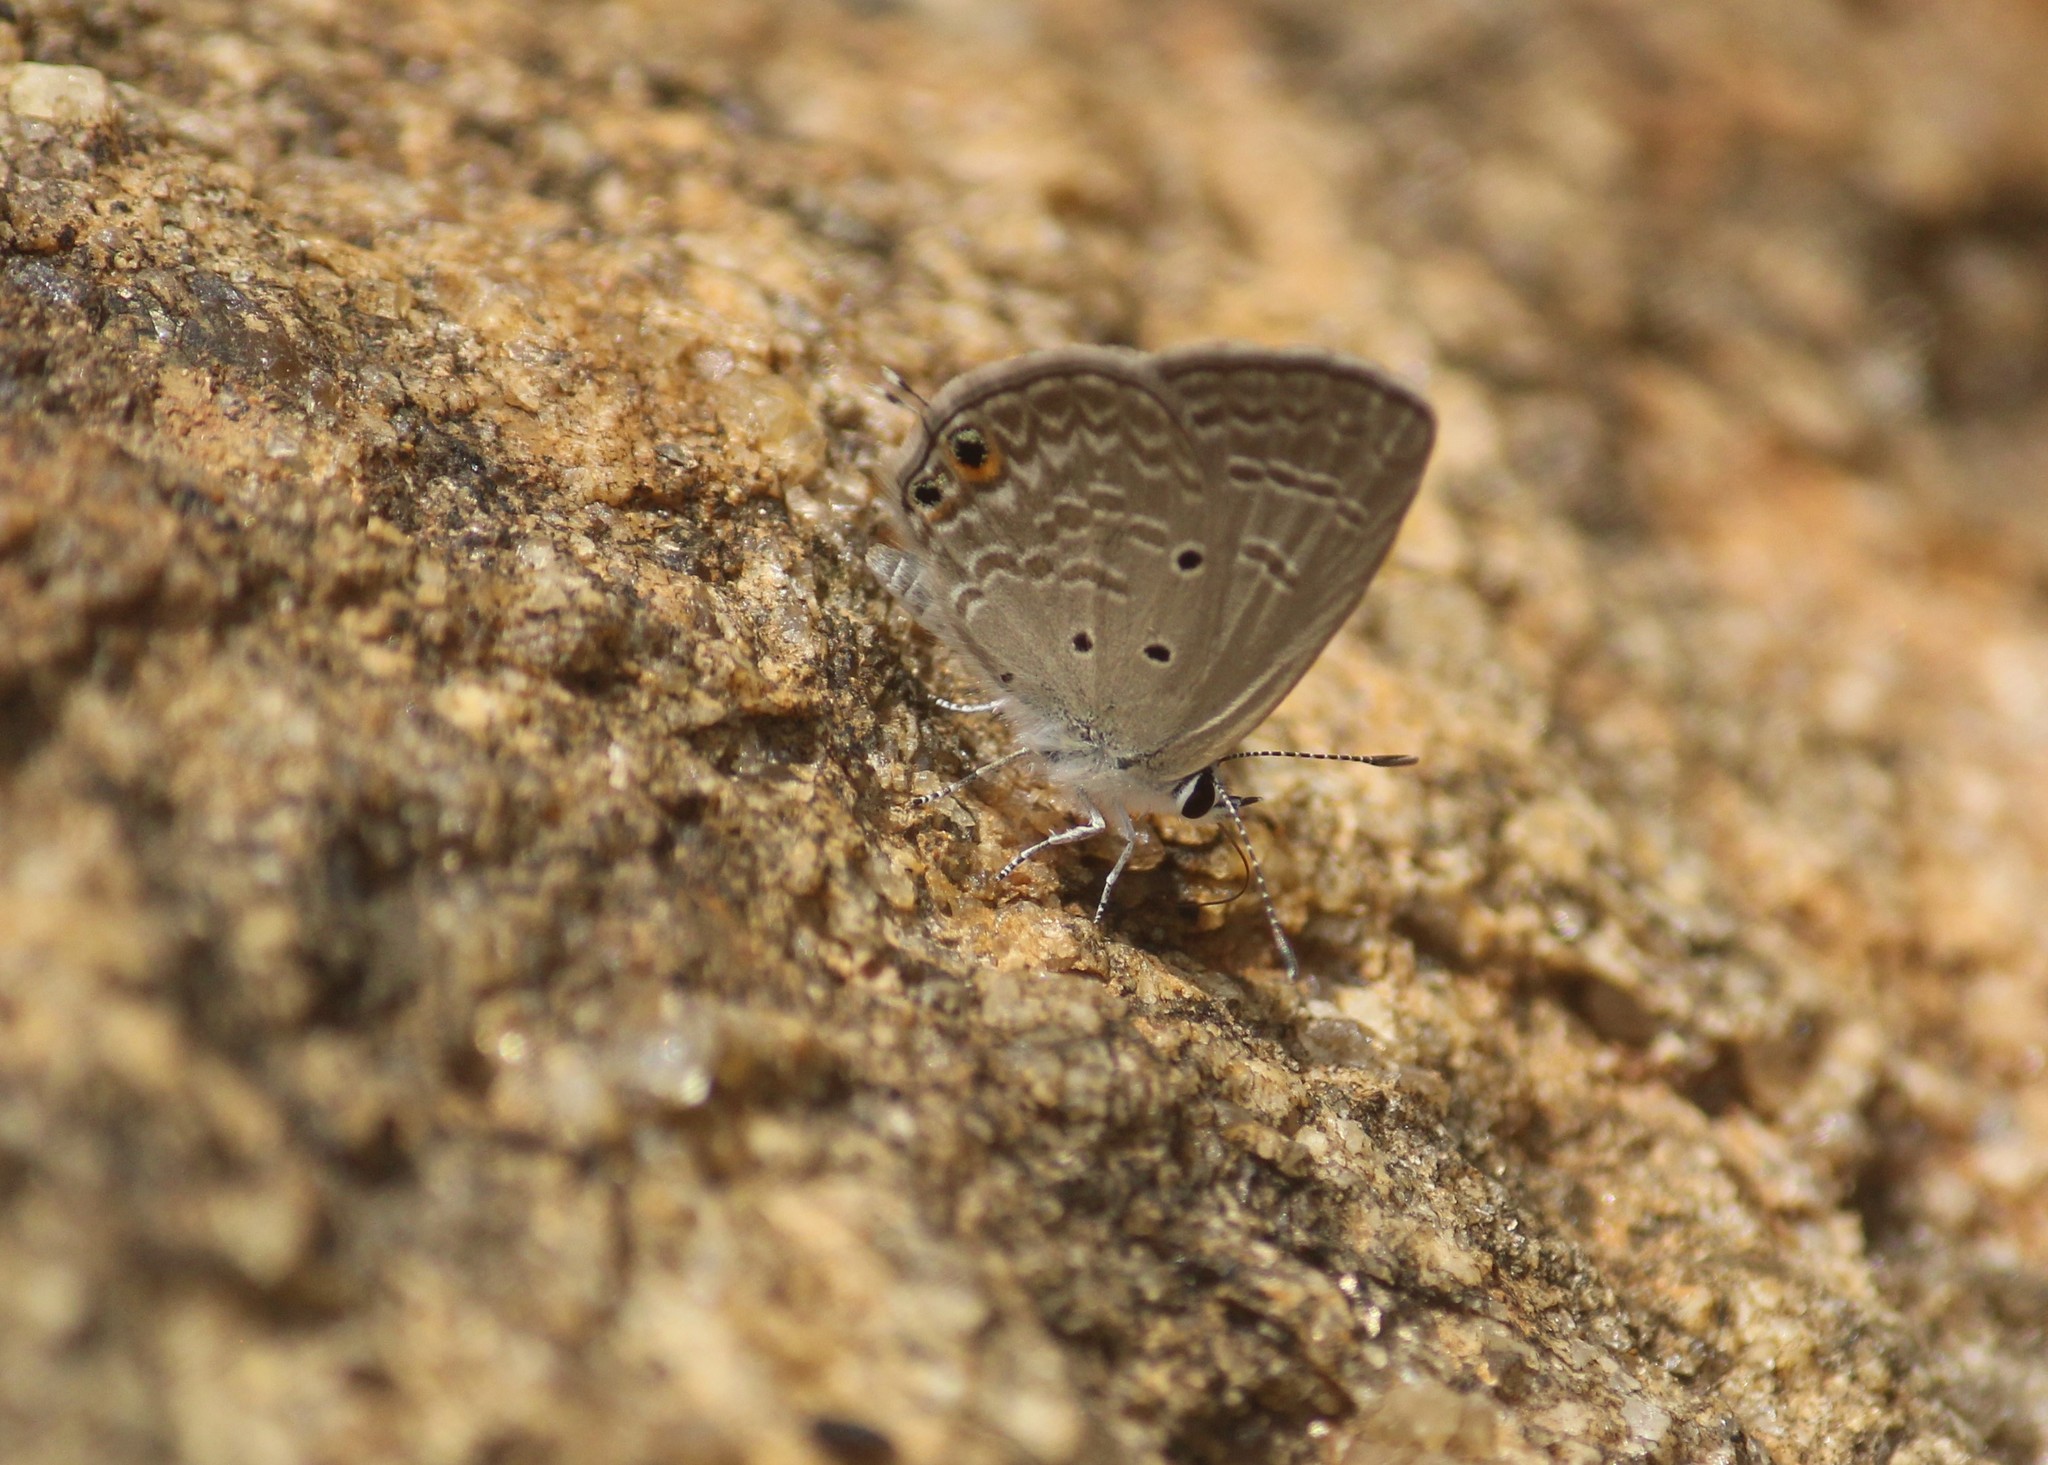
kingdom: Animalia
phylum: Arthropoda
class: Insecta
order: Lepidoptera
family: Lycaenidae
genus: Chilades
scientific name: Chilades parrhasius
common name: Small cupid
